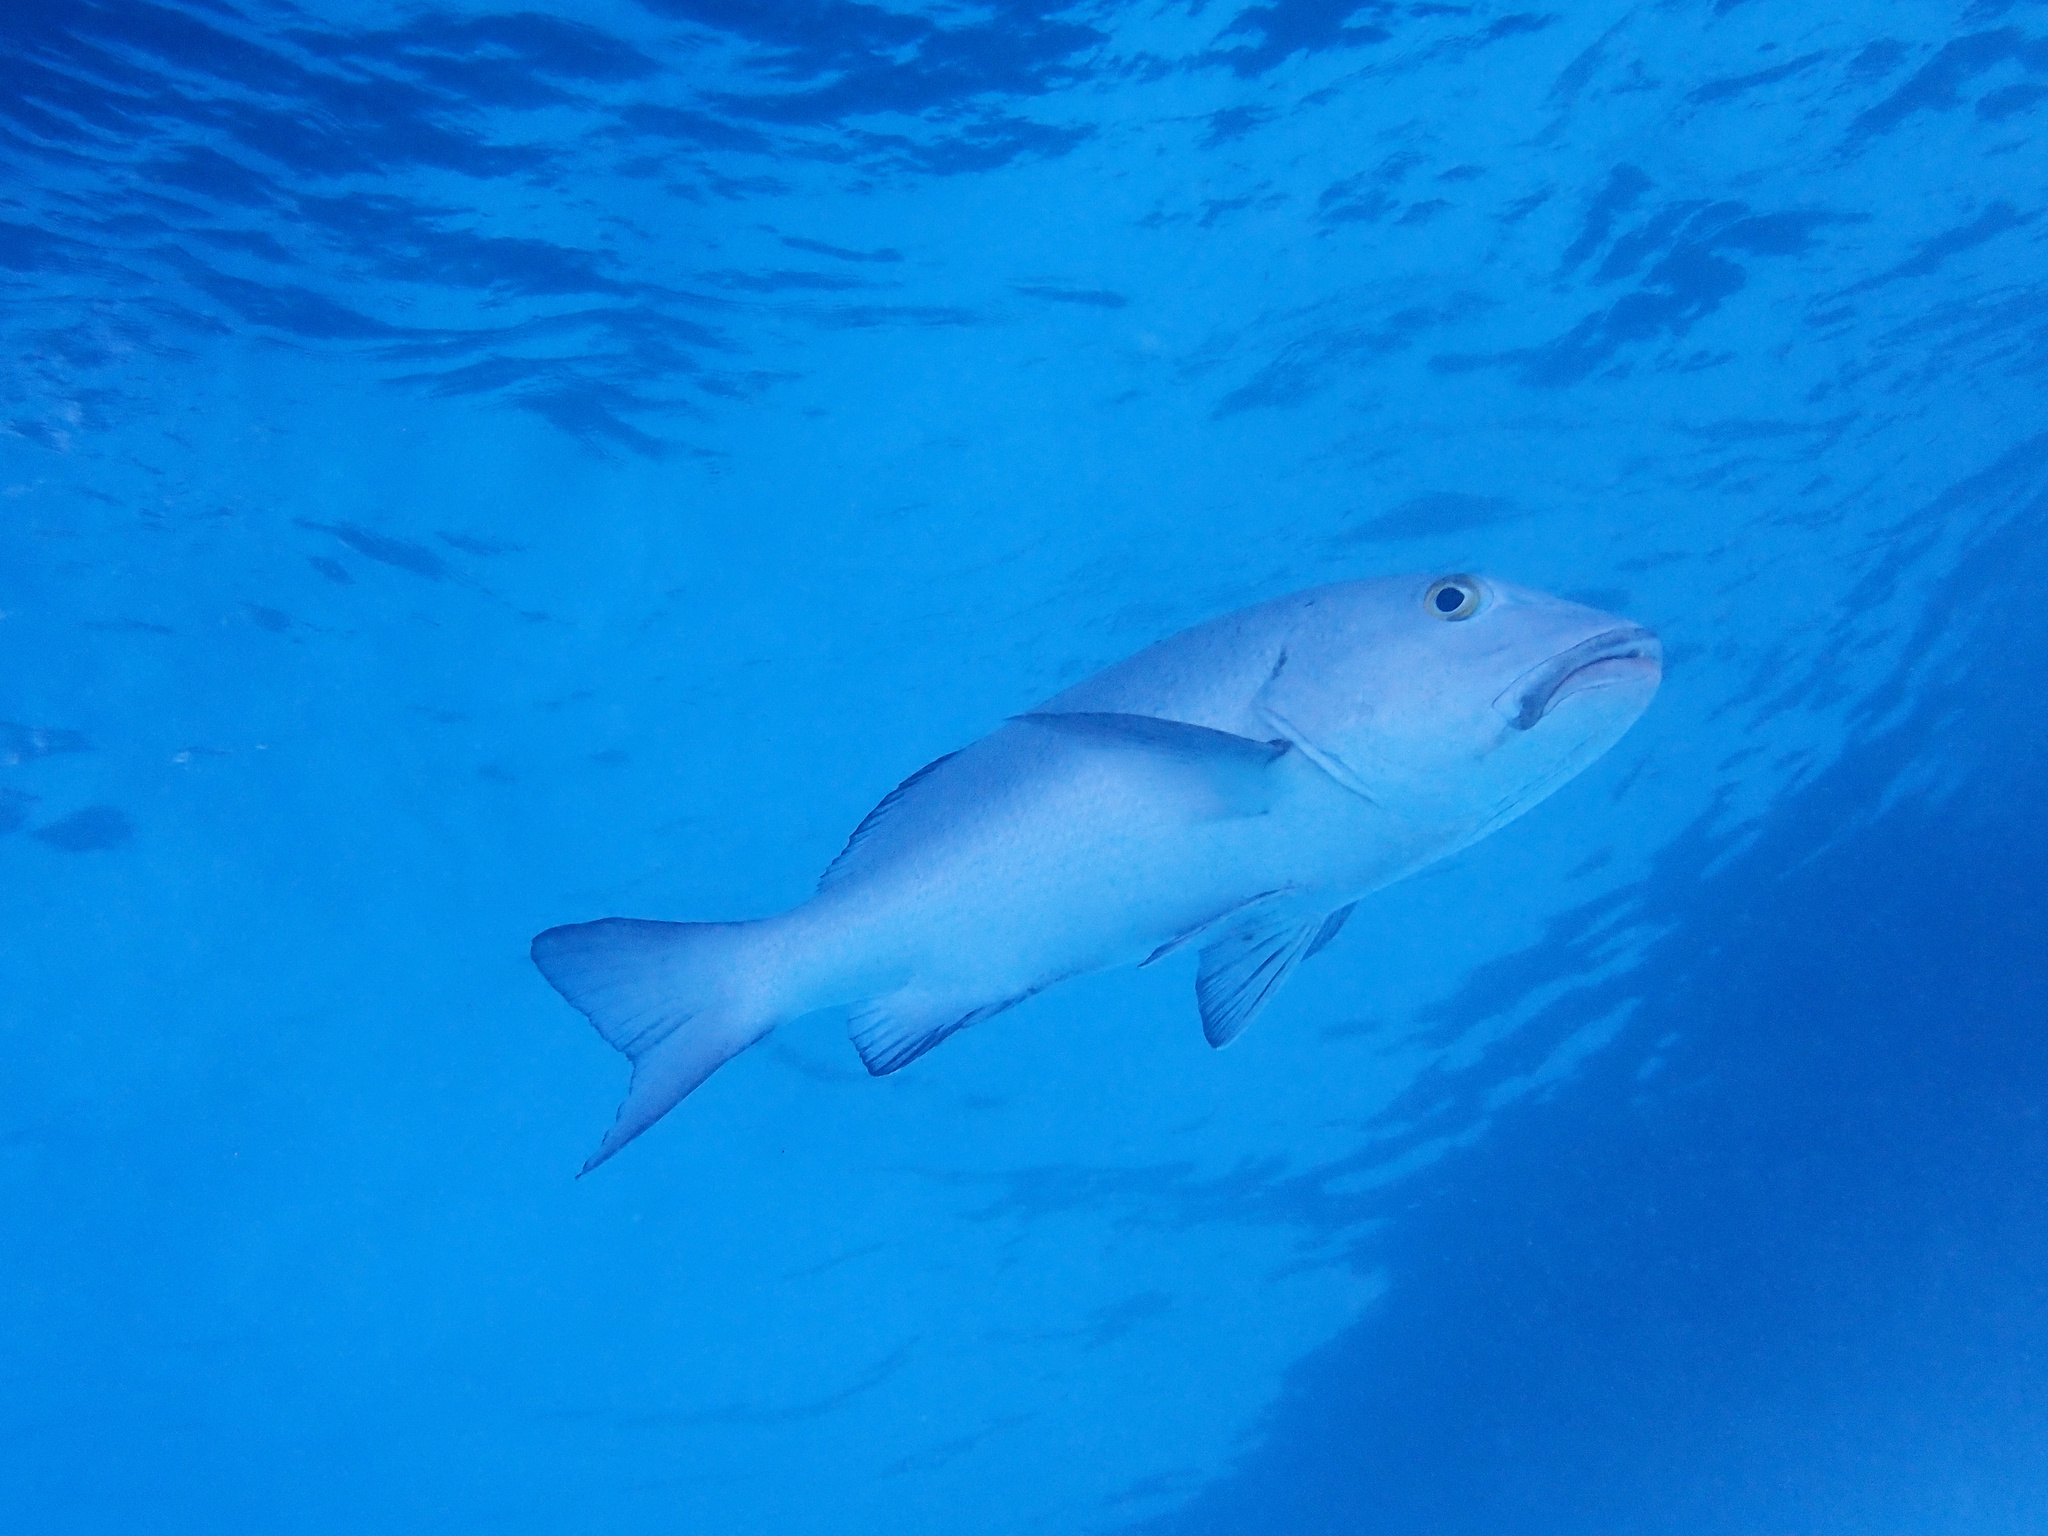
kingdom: Animalia
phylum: Chordata
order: Perciformes
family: Lutjanidae
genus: Lutjanus
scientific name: Lutjanus bohar
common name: Red bass
